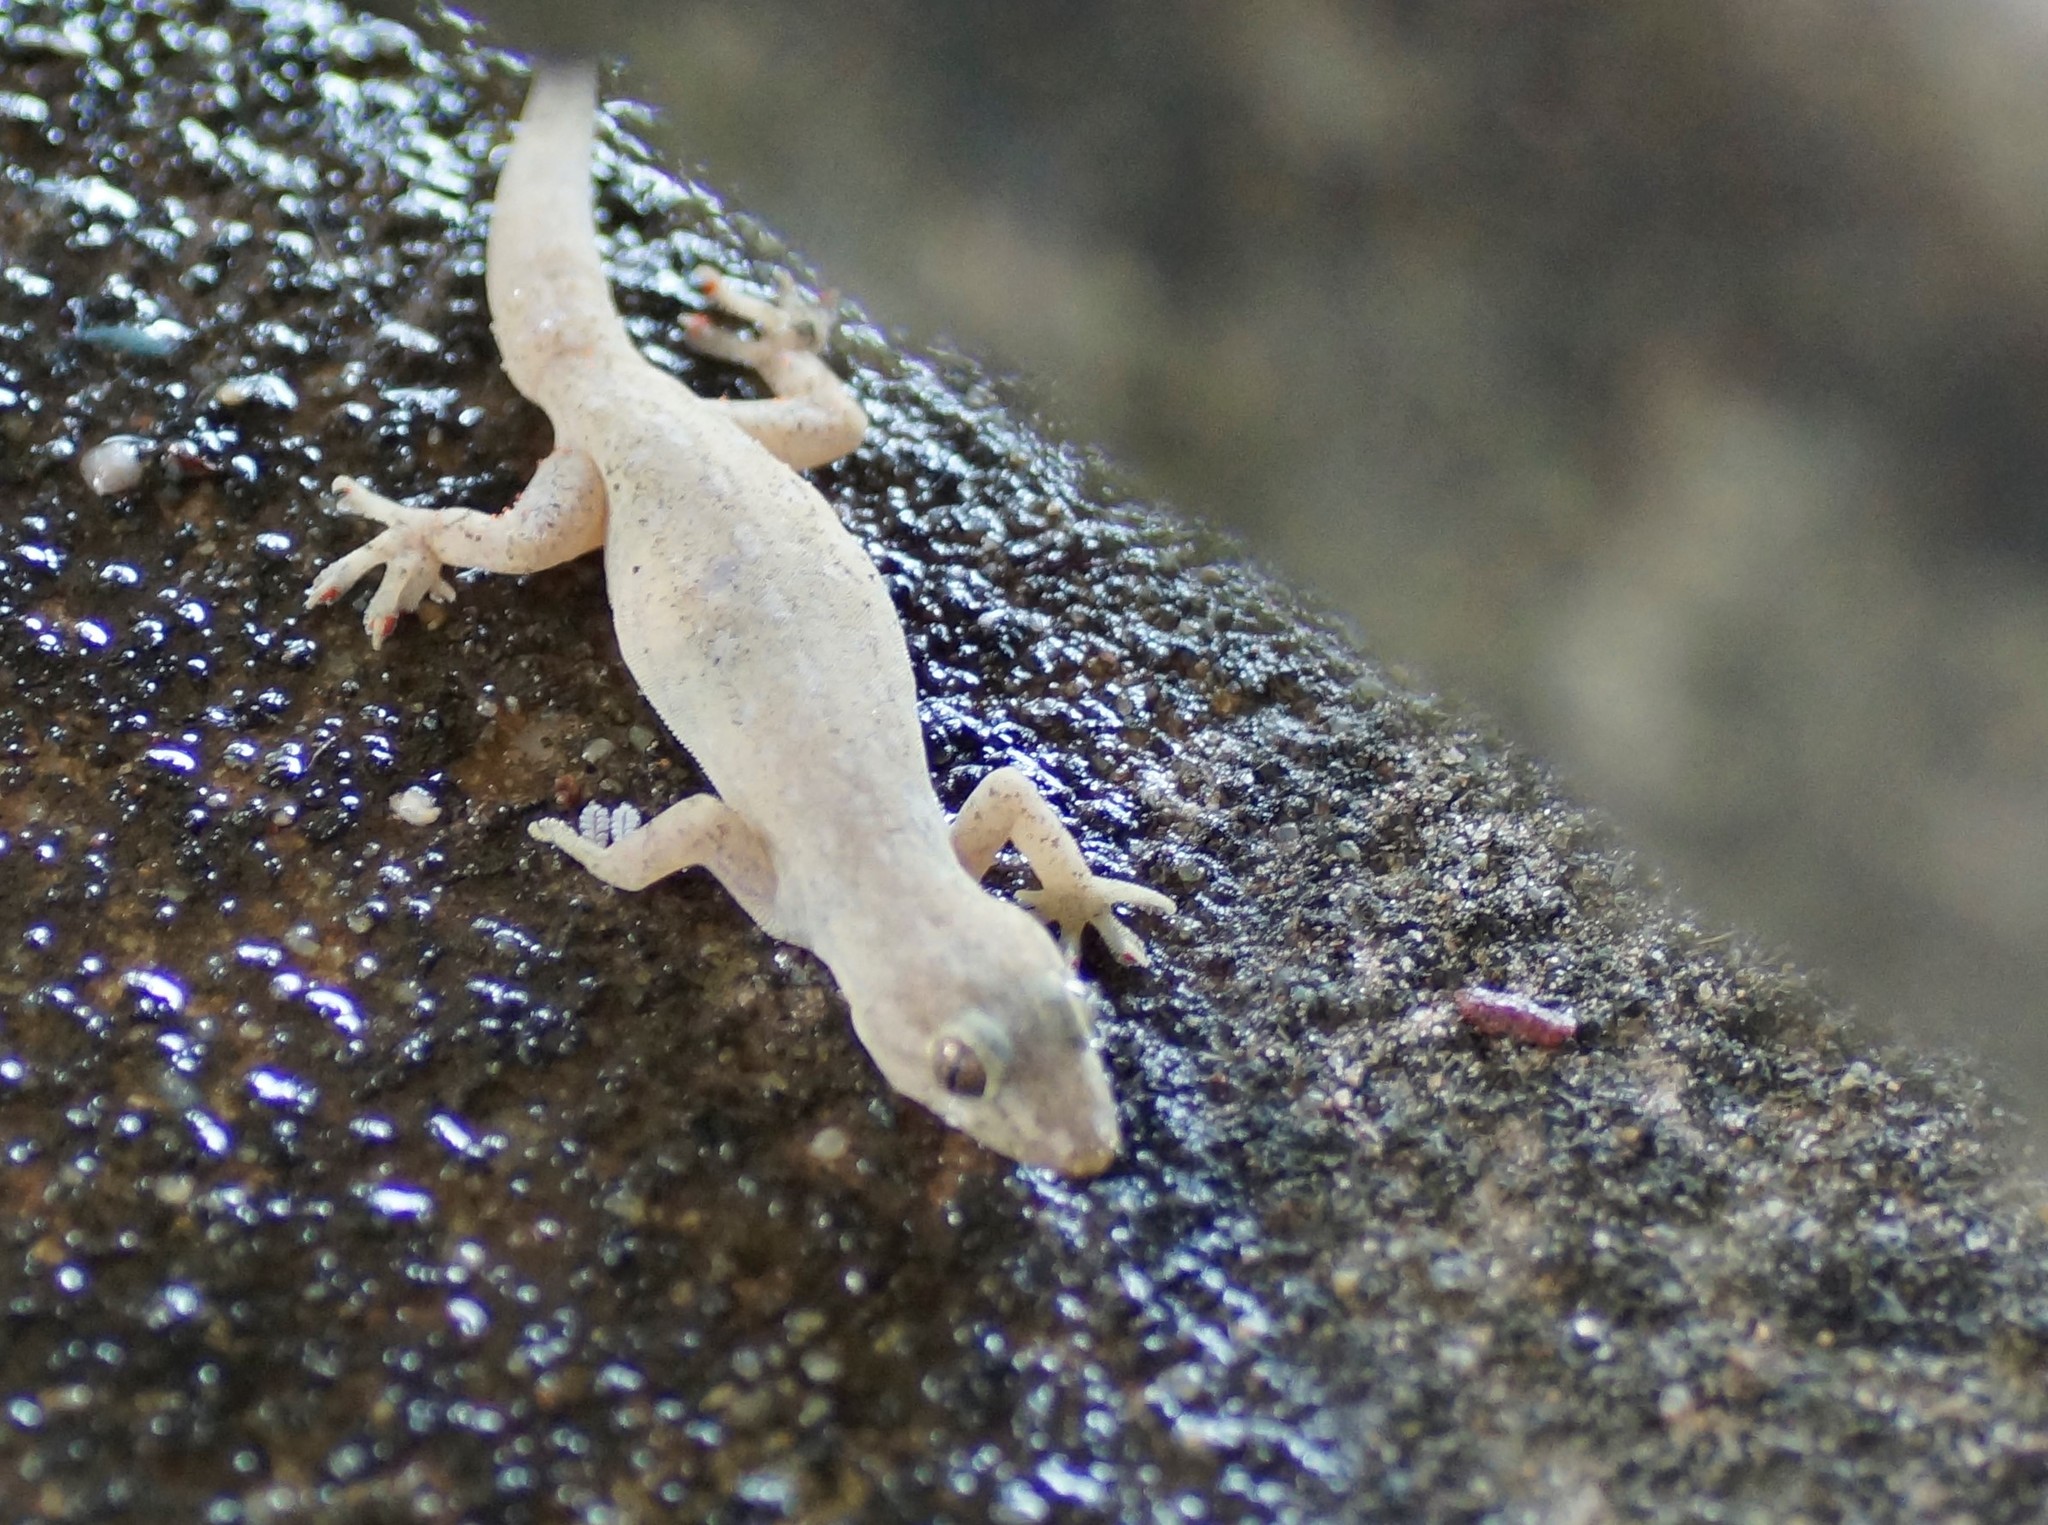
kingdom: Animalia
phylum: Chordata
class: Squamata
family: Gekkonidae
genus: Hemidactylus
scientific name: Hemidactylus frenatus
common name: Common house gecko
